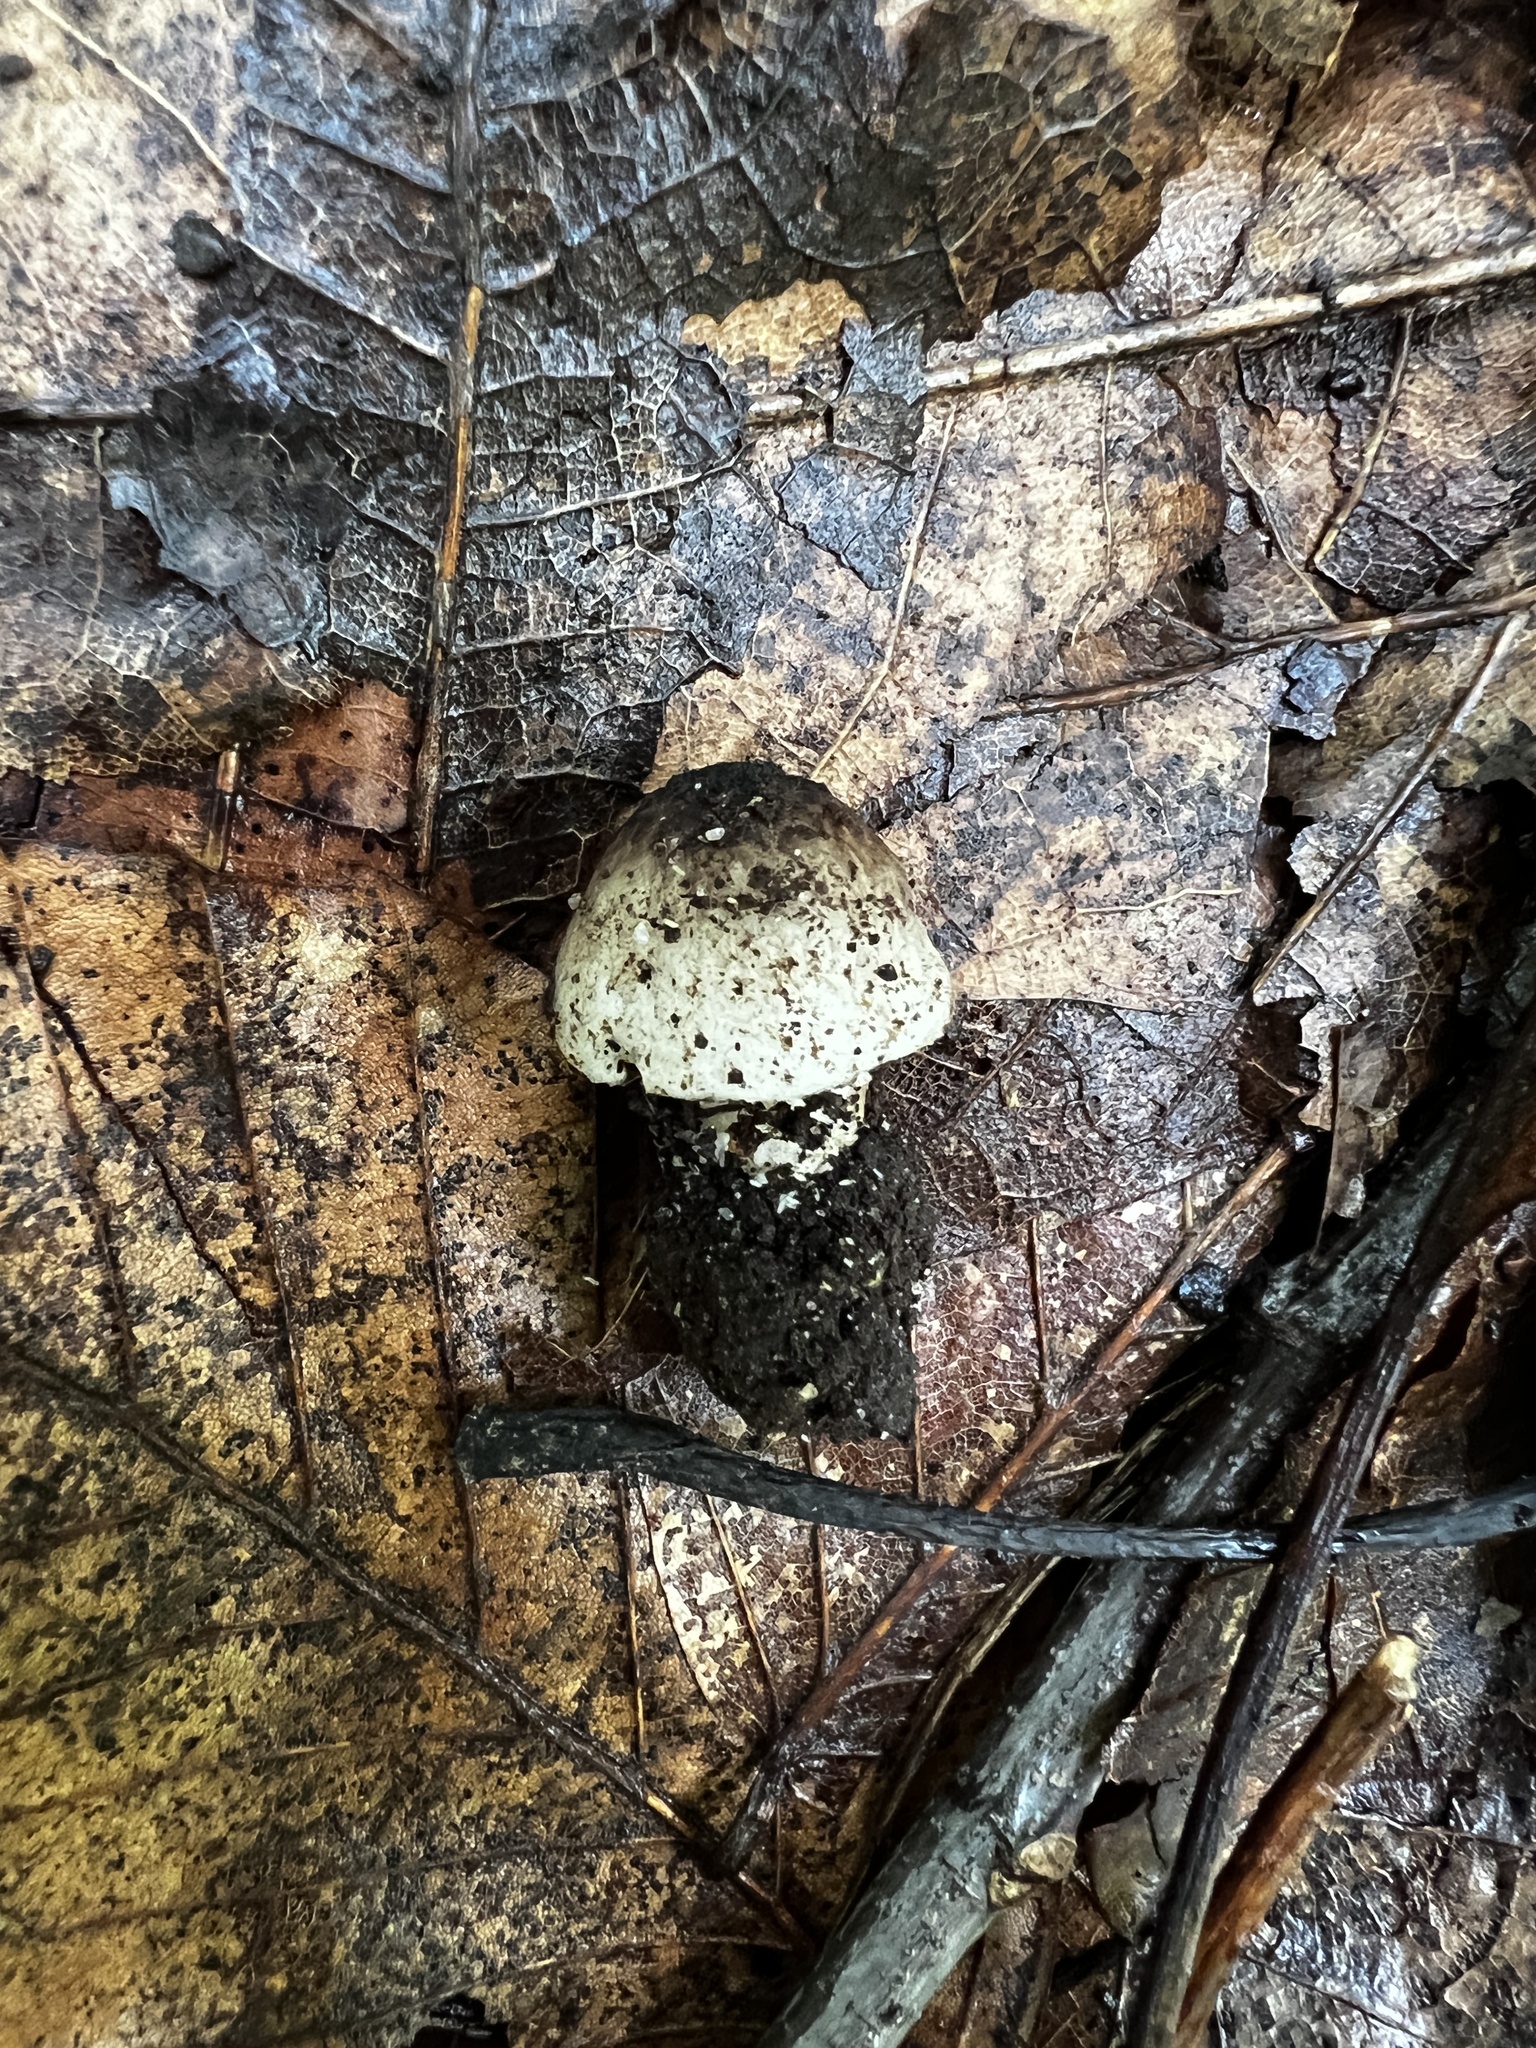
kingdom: Fungi
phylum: Basidiomycota
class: Agaricomycetes
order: Agaricales
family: Pluteaceae
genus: Pluteus
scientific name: Pluteus hongoi
